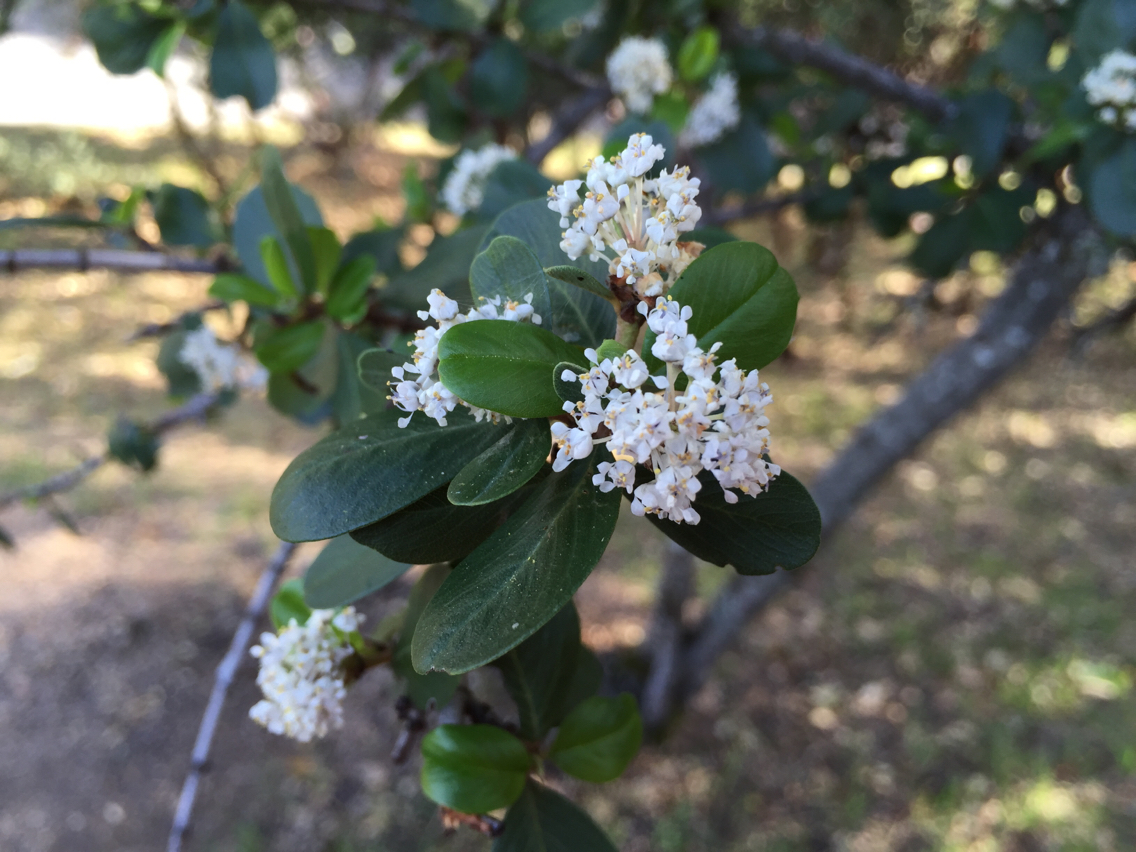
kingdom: Plantae
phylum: Tracheophyta
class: Magnoliopsida
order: Rosales
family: Rhamnaceae
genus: Ceanothus
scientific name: Ceanothus cuneatus
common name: Cuneate ceanothus
